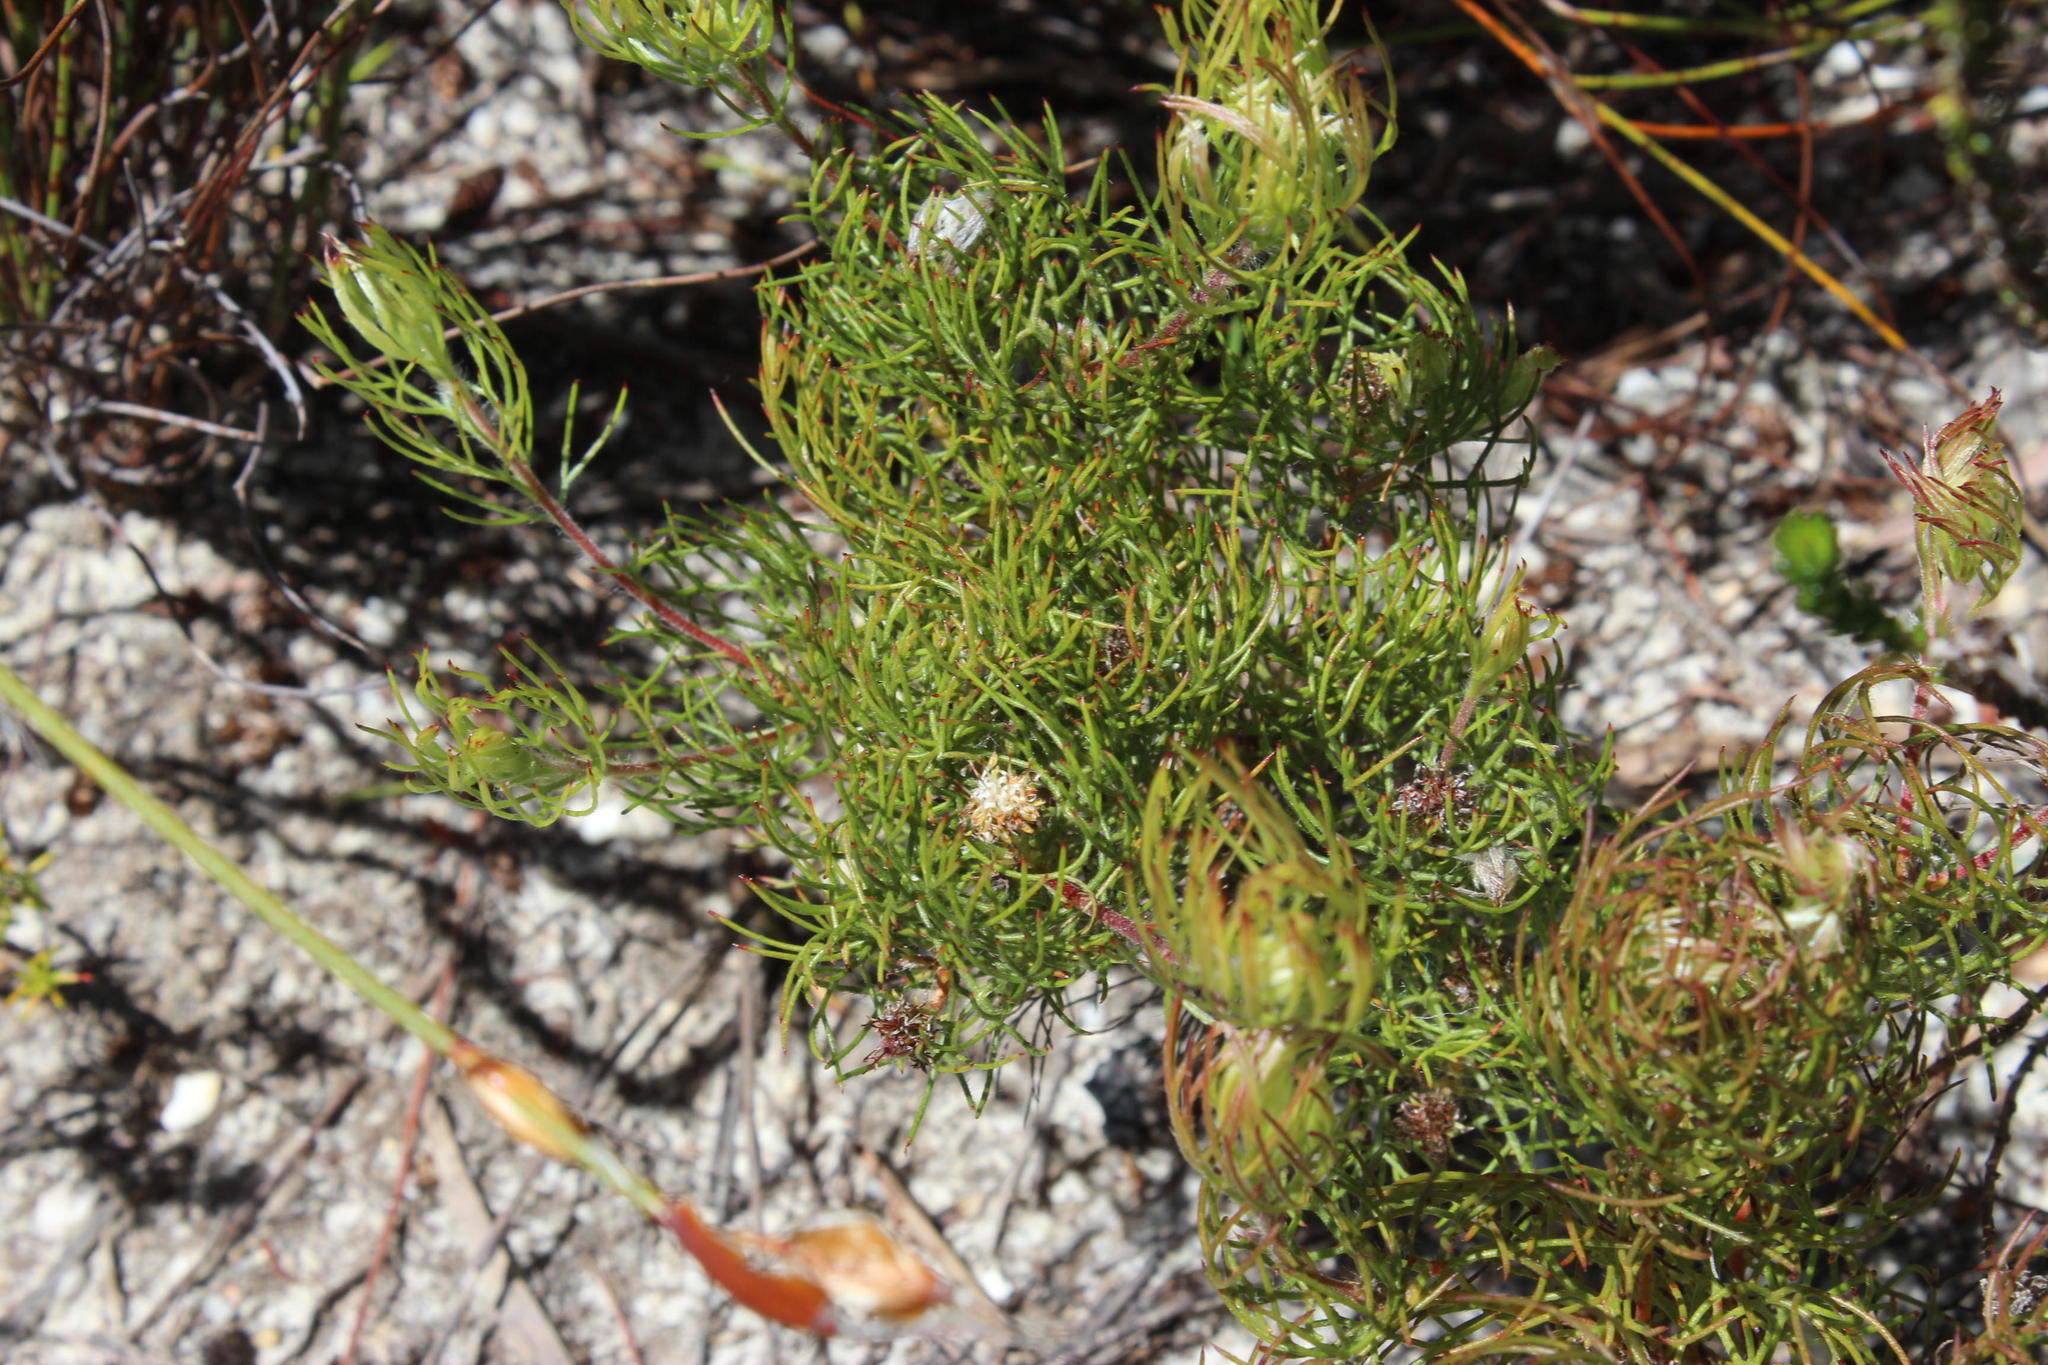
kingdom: Plantae
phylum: Tracheophyta
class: Magnoliopsida
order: Proteales
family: Proteaceae
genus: Serruria
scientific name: Serruria inconspicua
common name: Cryptic spiderhead
